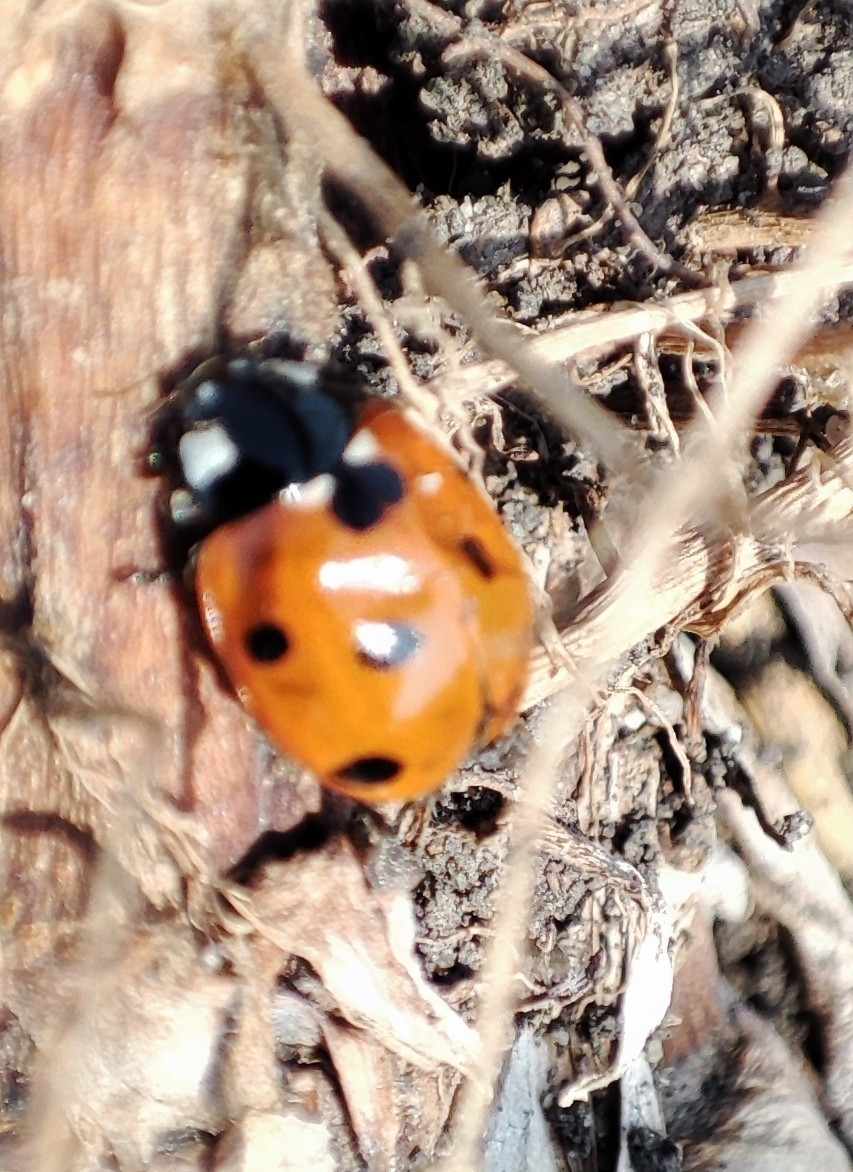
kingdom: Animalia
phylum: Arthropoda
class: Insecta
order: Coleoptera
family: Coccinellidae
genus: Coccinella
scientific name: Coccinella septempunctata
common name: Sevenspotted lady beetle
